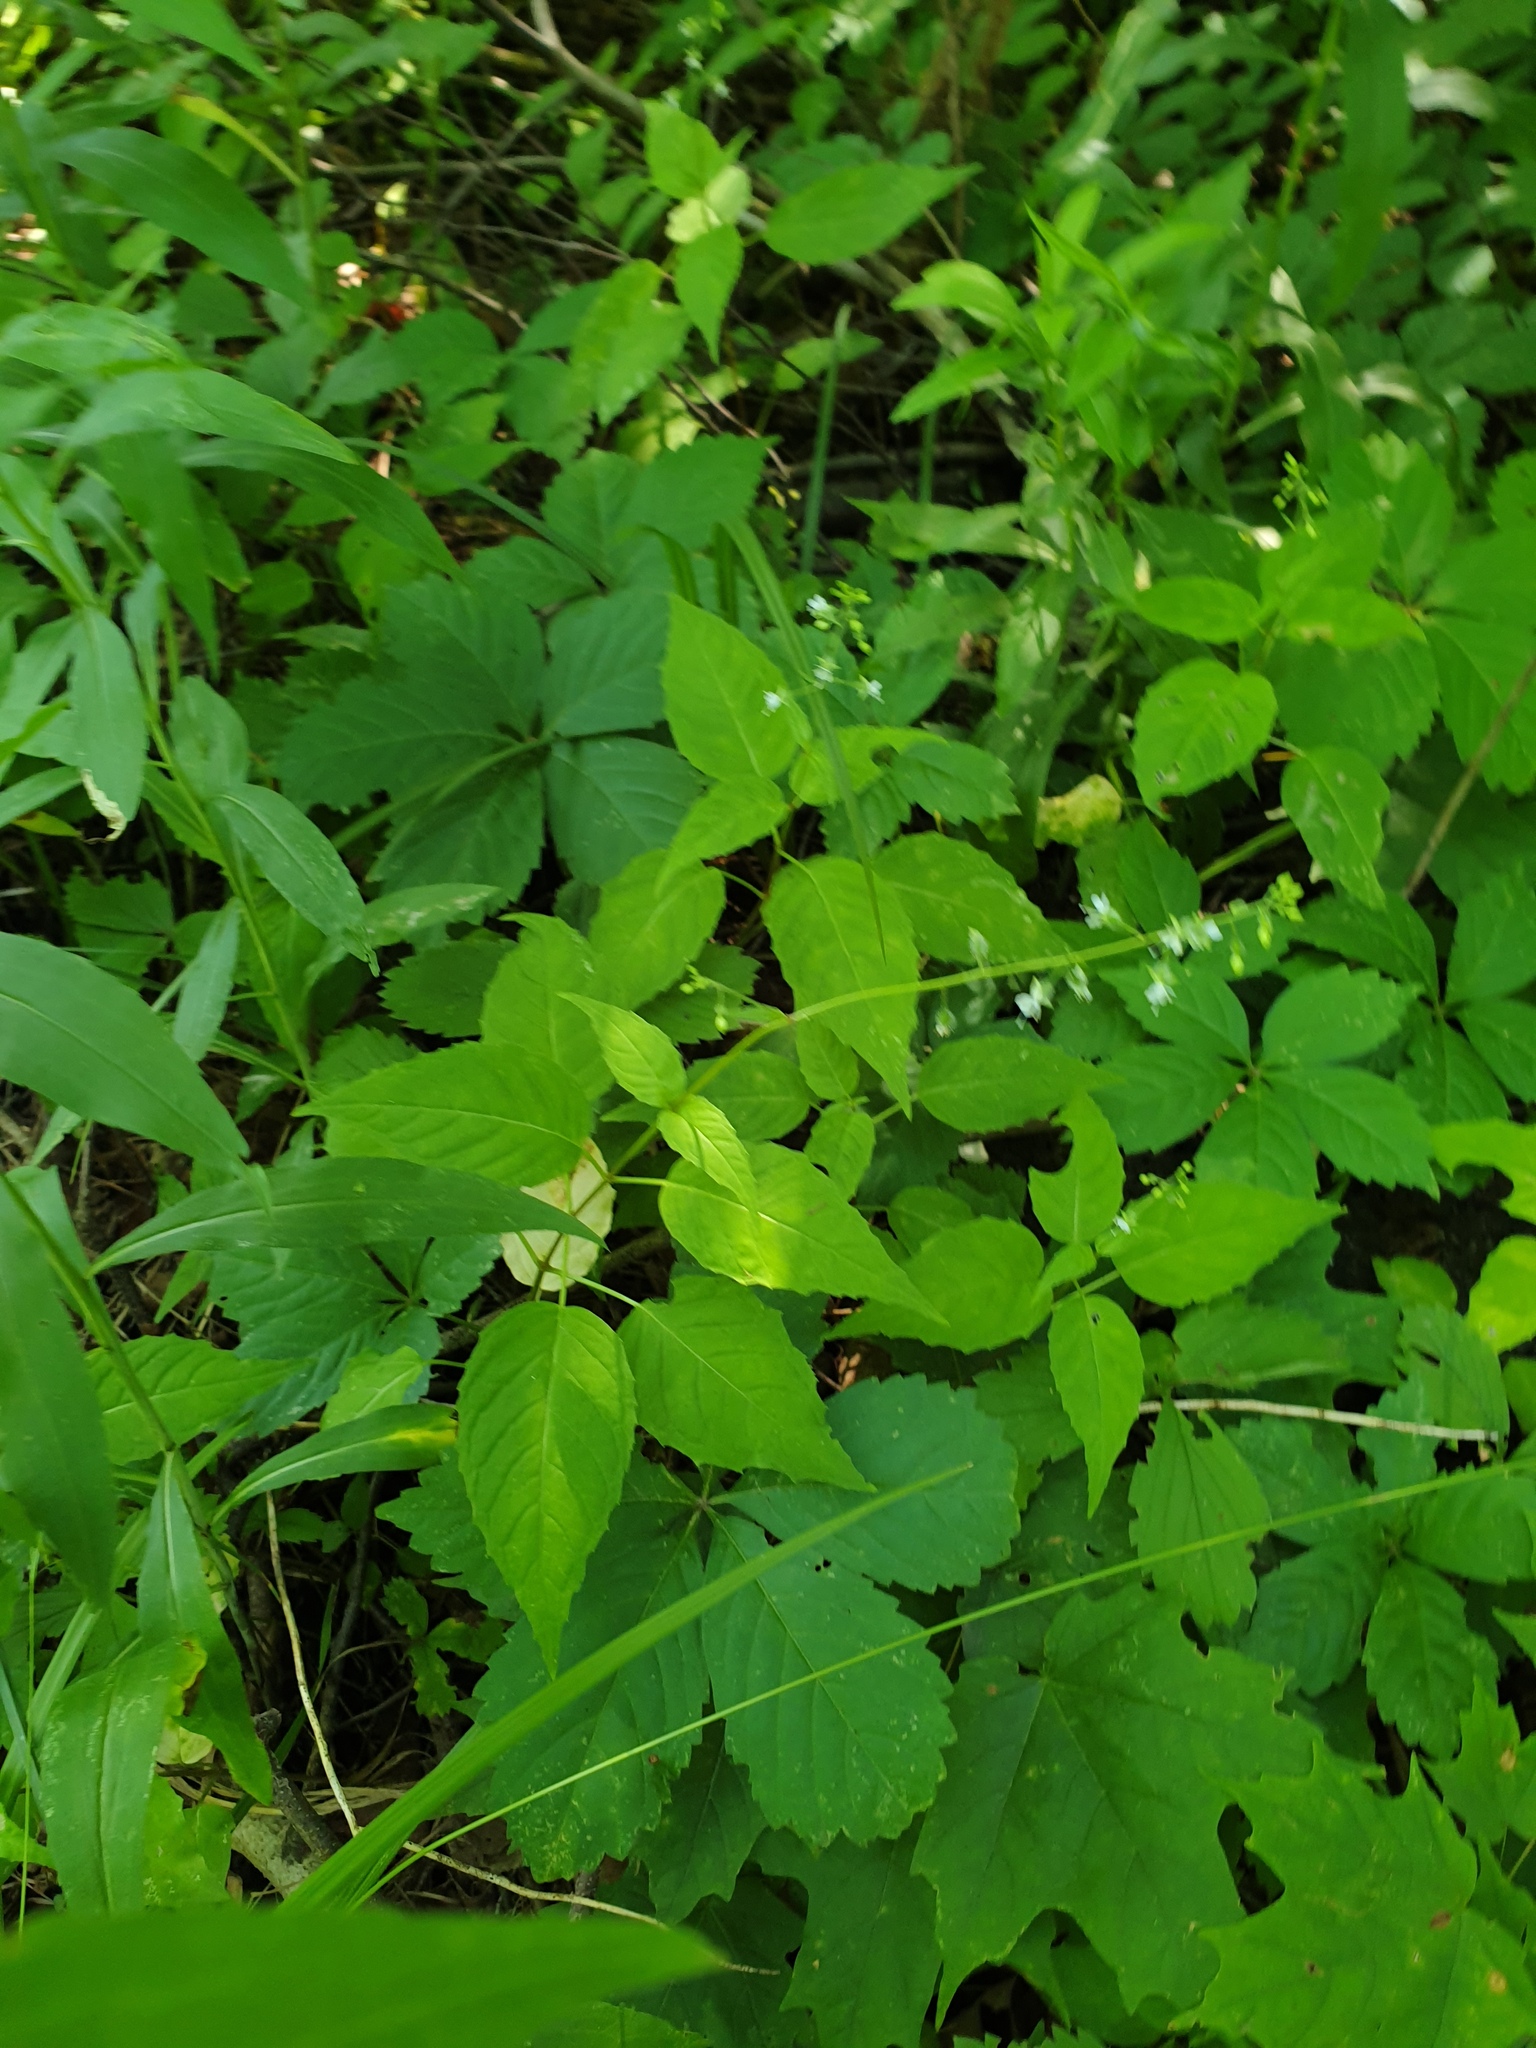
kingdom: Plantae
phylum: Tracheophyta
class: Magnoliopsida
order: Myrtales
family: Onagraceae
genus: Circaea
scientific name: Circaea canadensis
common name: Broad-leaved enchanter's nightshade
